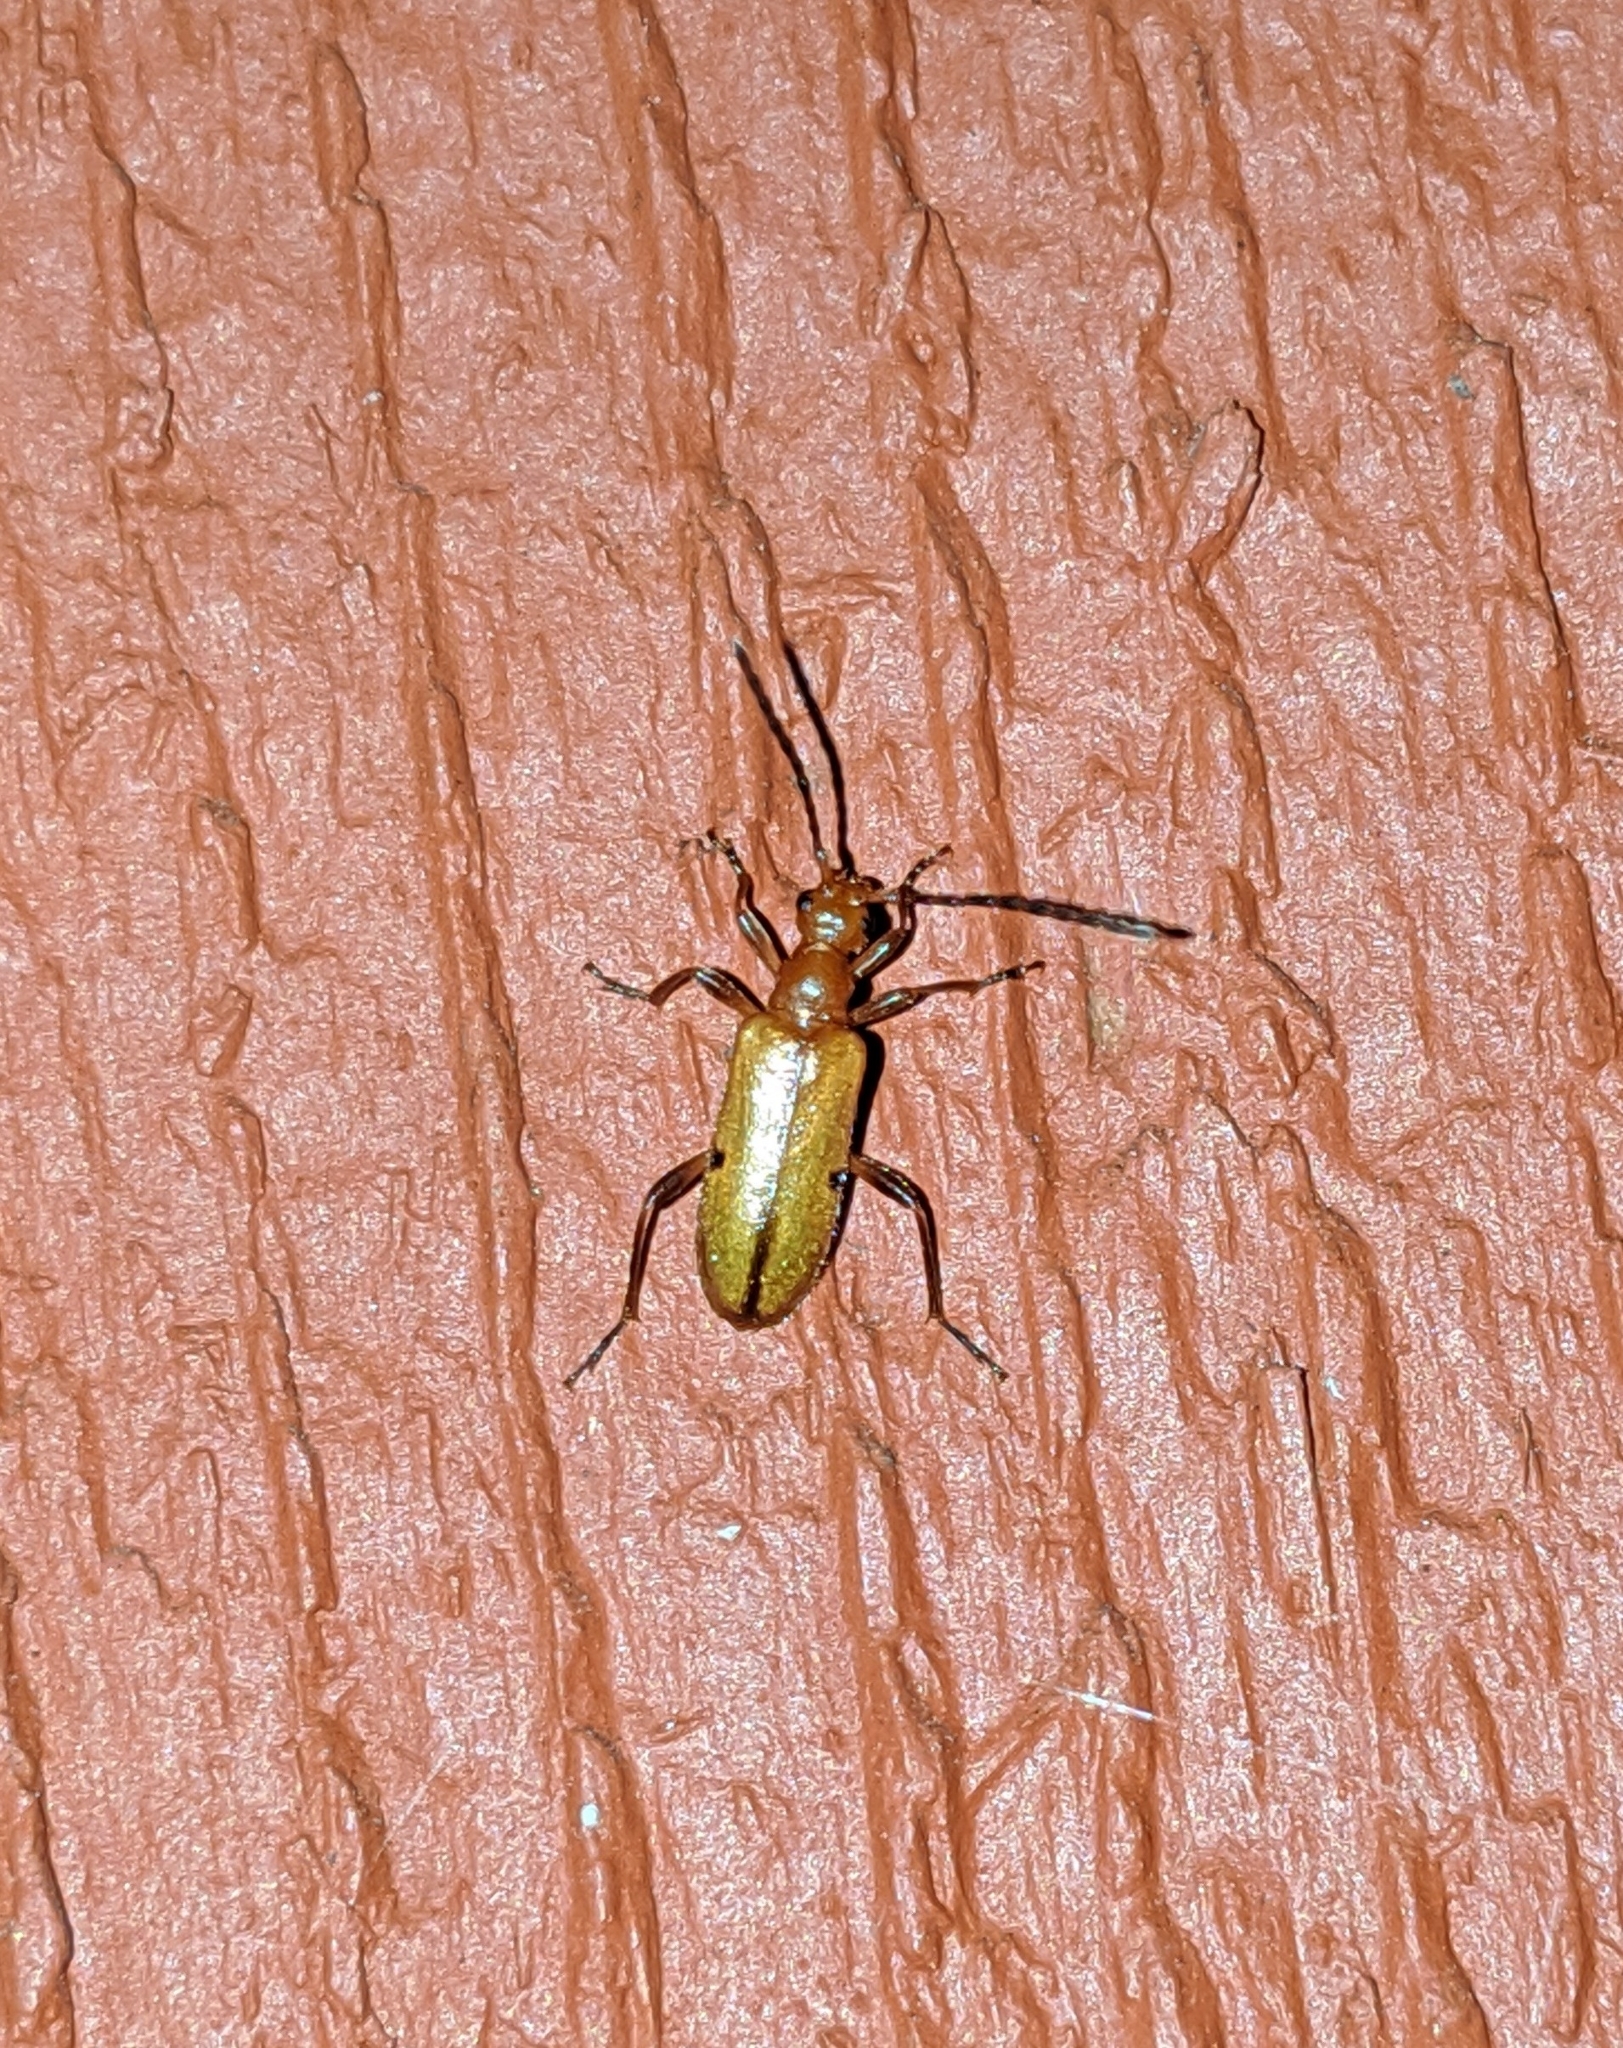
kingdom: Animalia
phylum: Arthropoda
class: Insecta
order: Coleoptera
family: Cerambycidae
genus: Pidonia
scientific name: Pidonia quadrata
